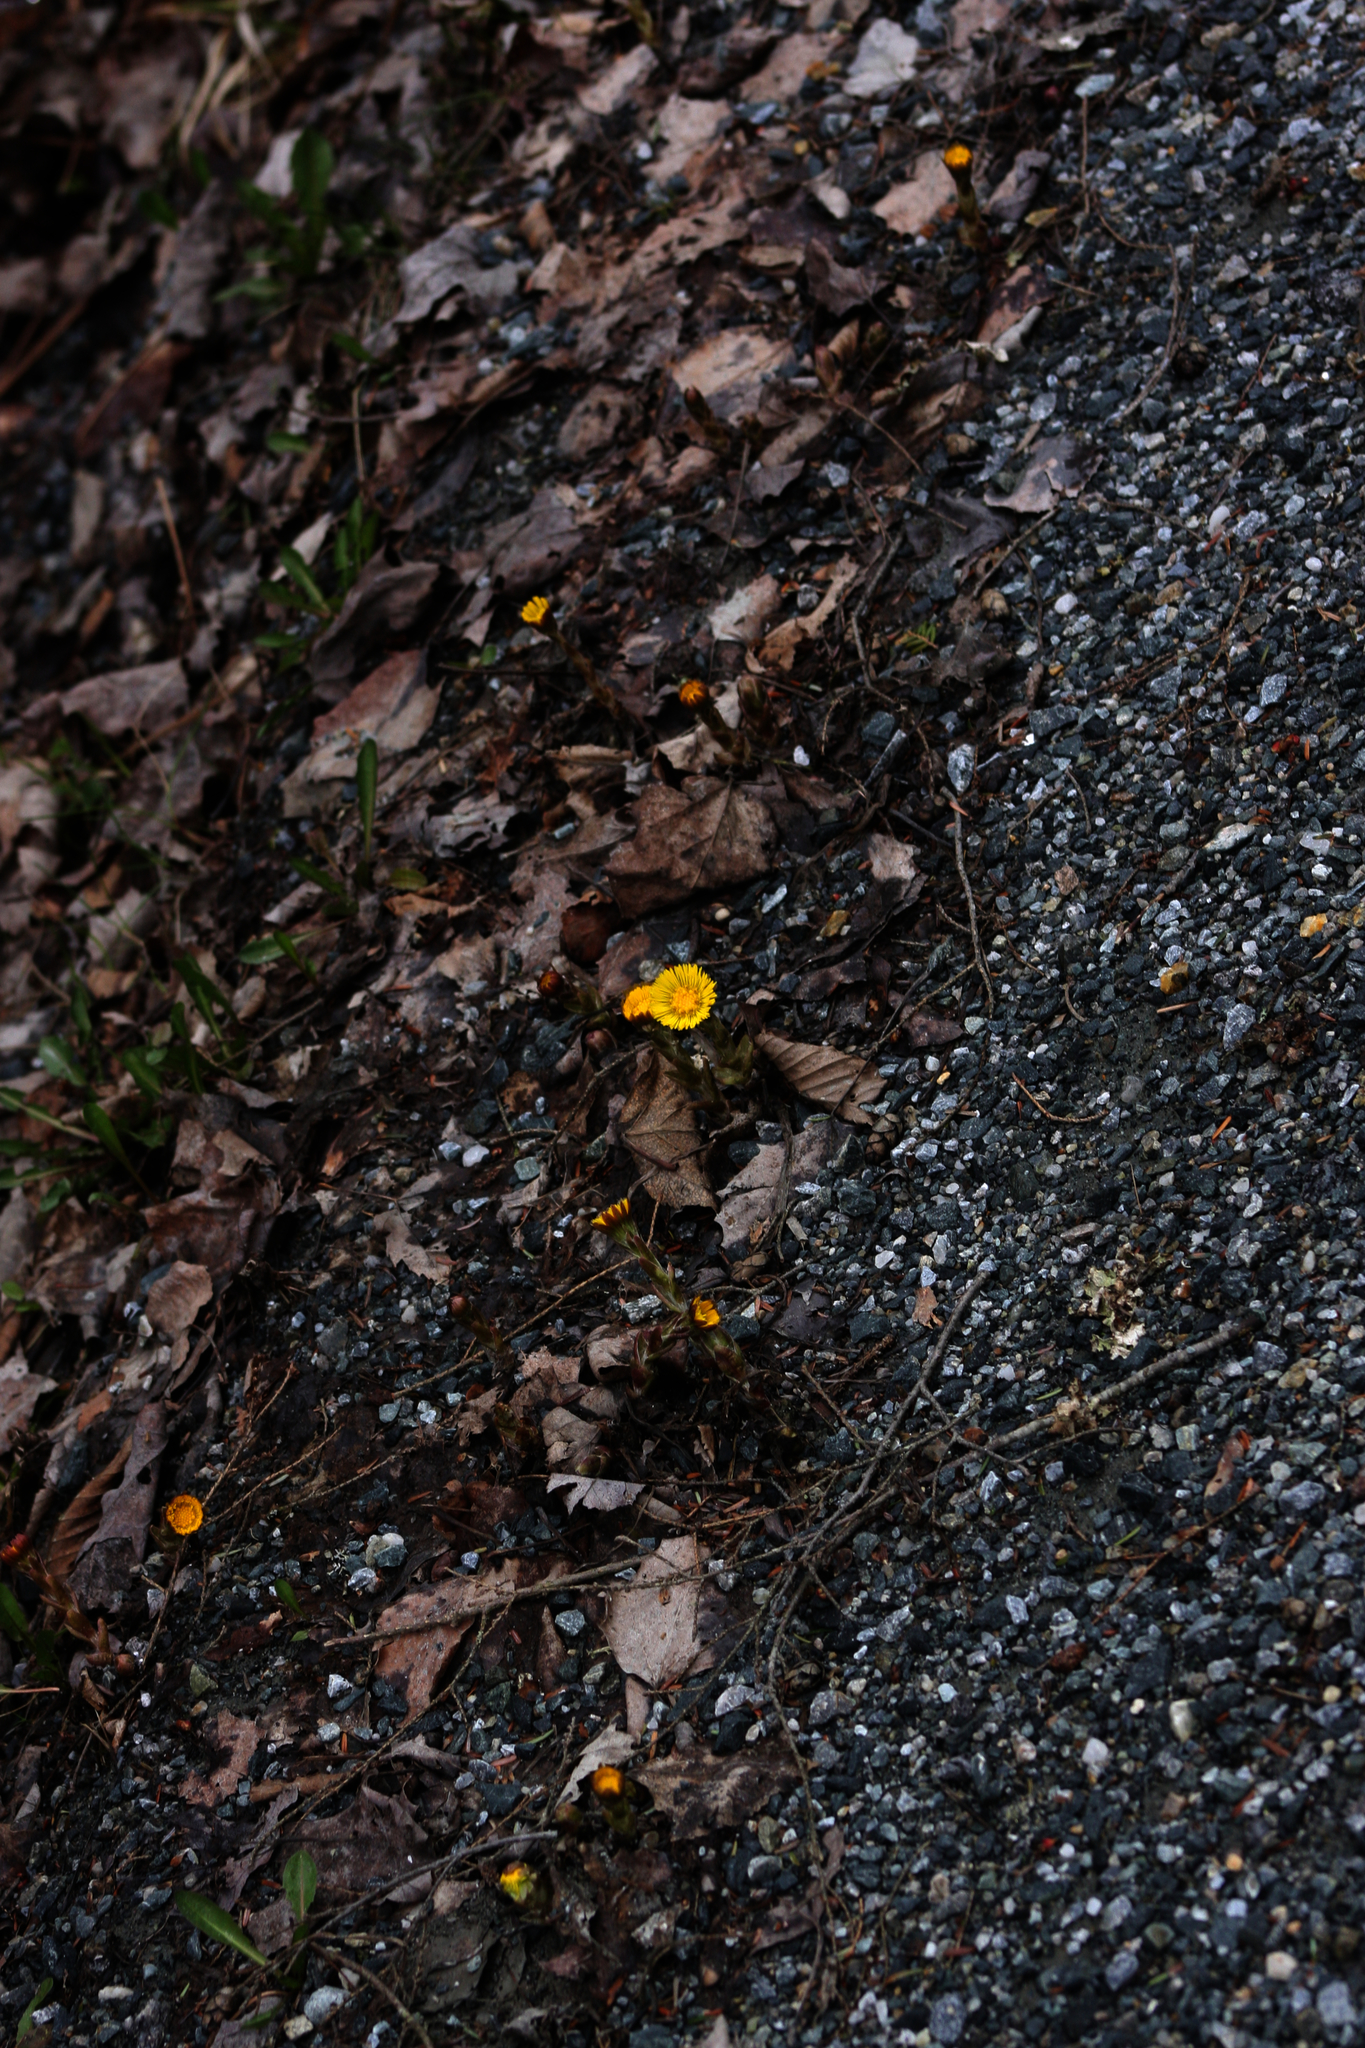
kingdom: Plantae
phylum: Tracheophyta
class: Magnoliopsida
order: Asterales
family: Asteraceae
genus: Tussilago
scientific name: Tussilago farfara
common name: Coltsfoot
